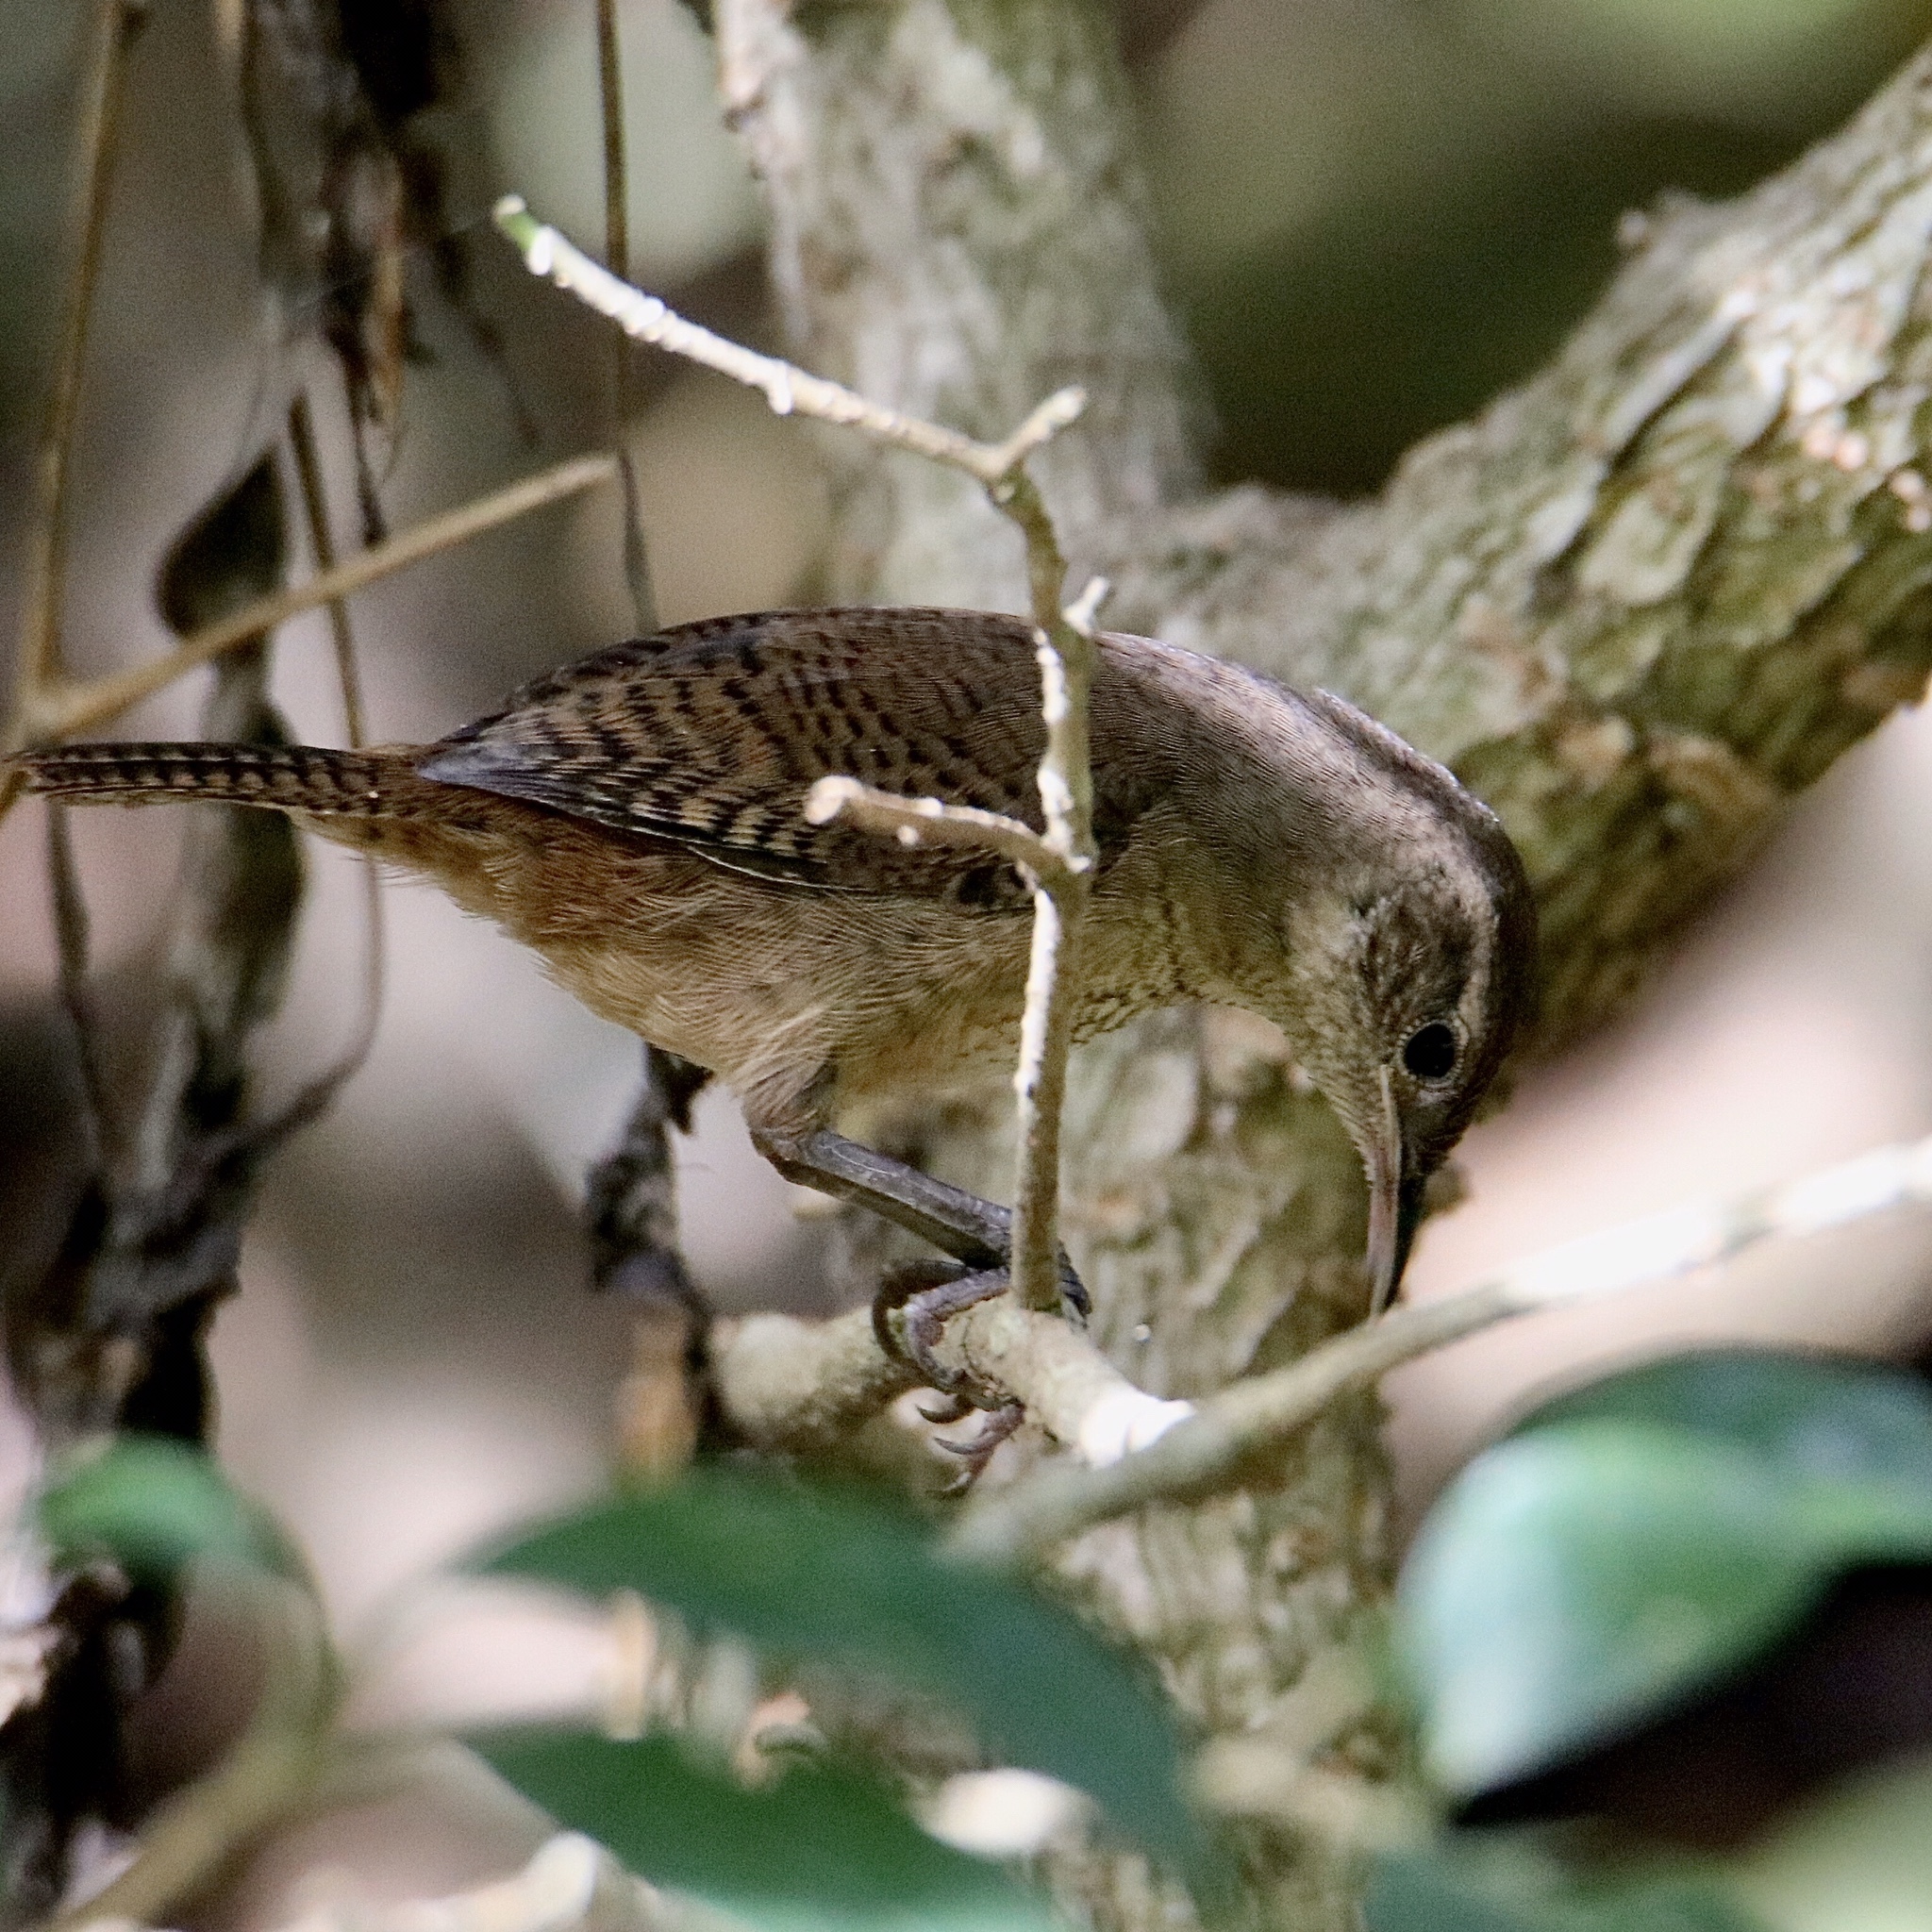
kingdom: Animalia
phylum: Chordata
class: Aves
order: Passeriformes
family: Troglodytidae
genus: Troglodytes
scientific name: Troglodytes aedon
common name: House wren
